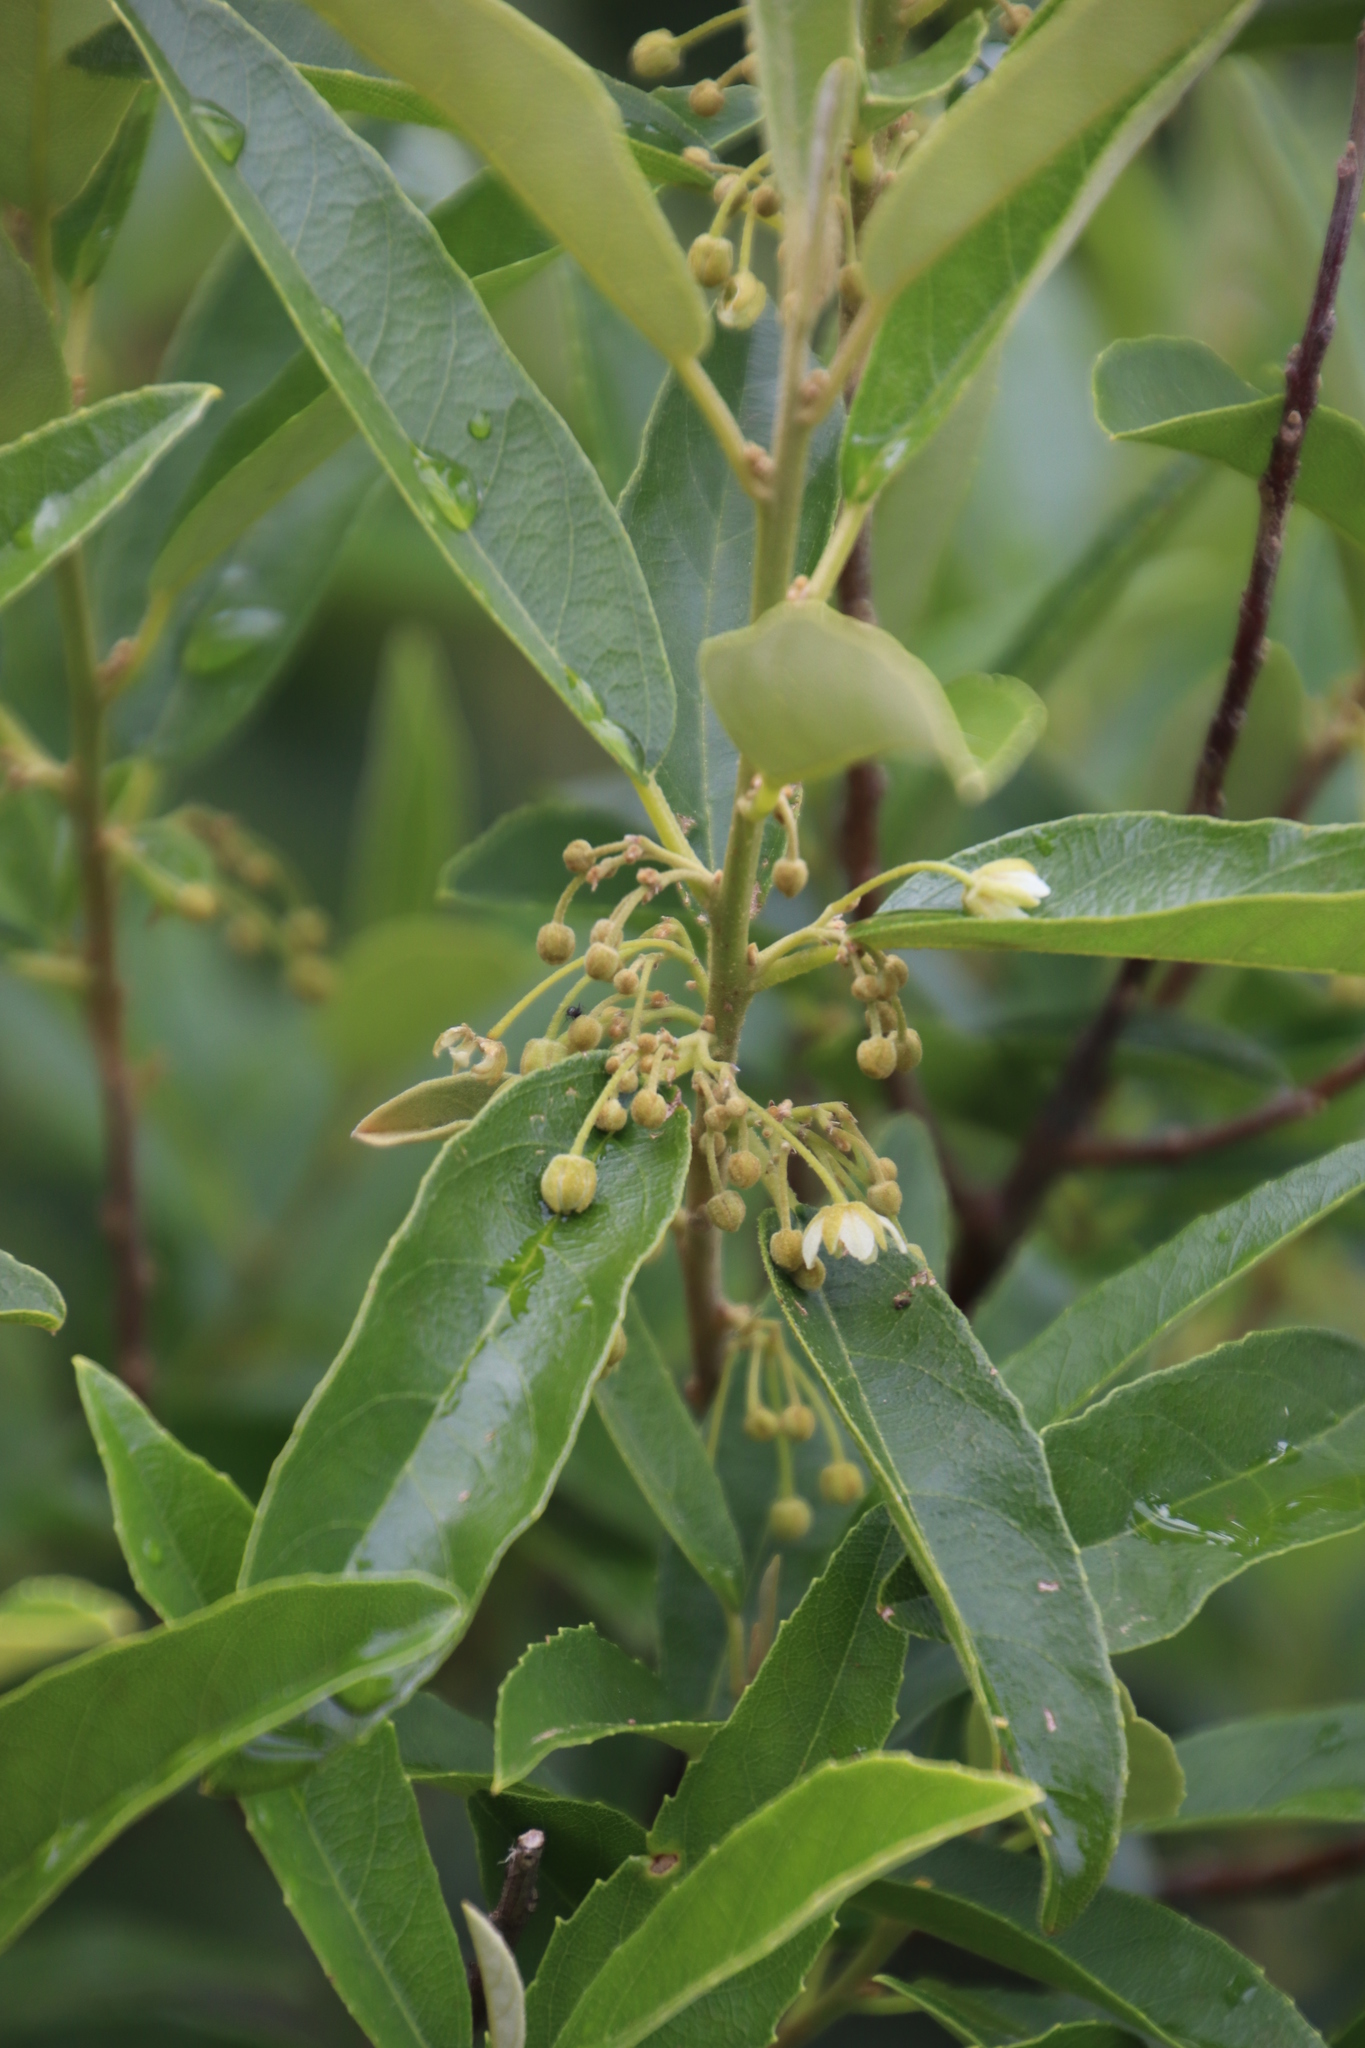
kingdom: Plantae
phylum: Tracheophyta
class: Magnoliopsida
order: Malpighiales
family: Achariaceae
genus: Kiggelaria
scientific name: Kiggelaria africana
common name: Wild peach
